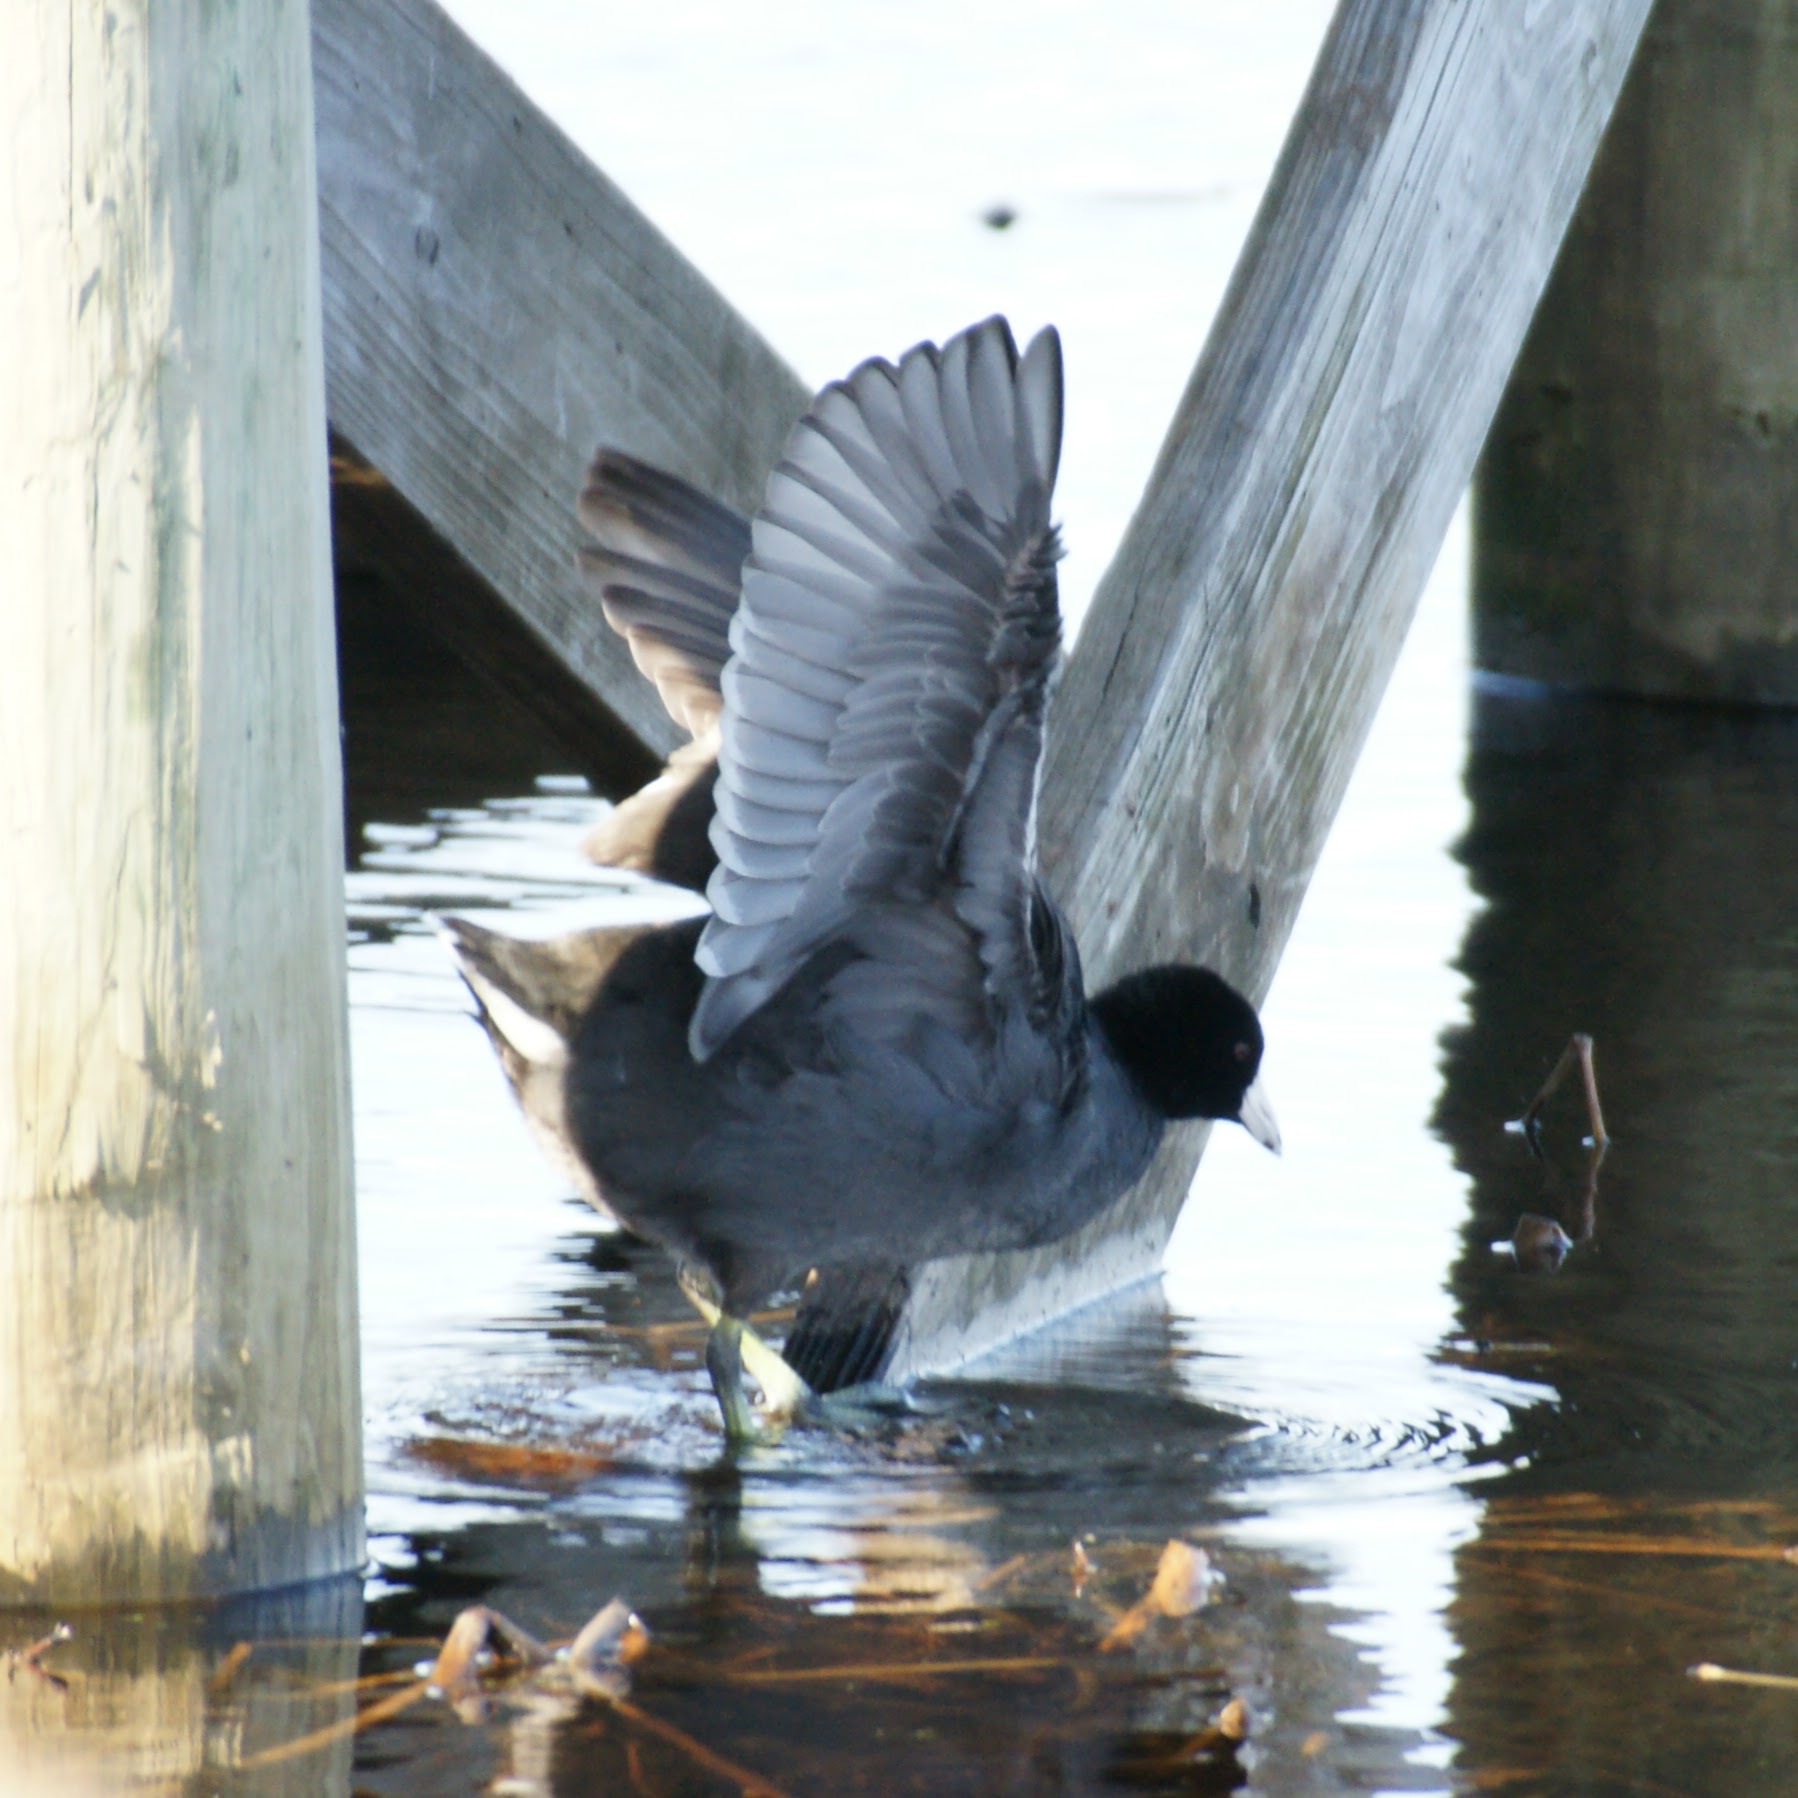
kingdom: Animalia
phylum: Chordata
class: Aves
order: Gruiformes
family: Rallidae
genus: Fulica
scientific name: Fulica americana
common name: American coot
